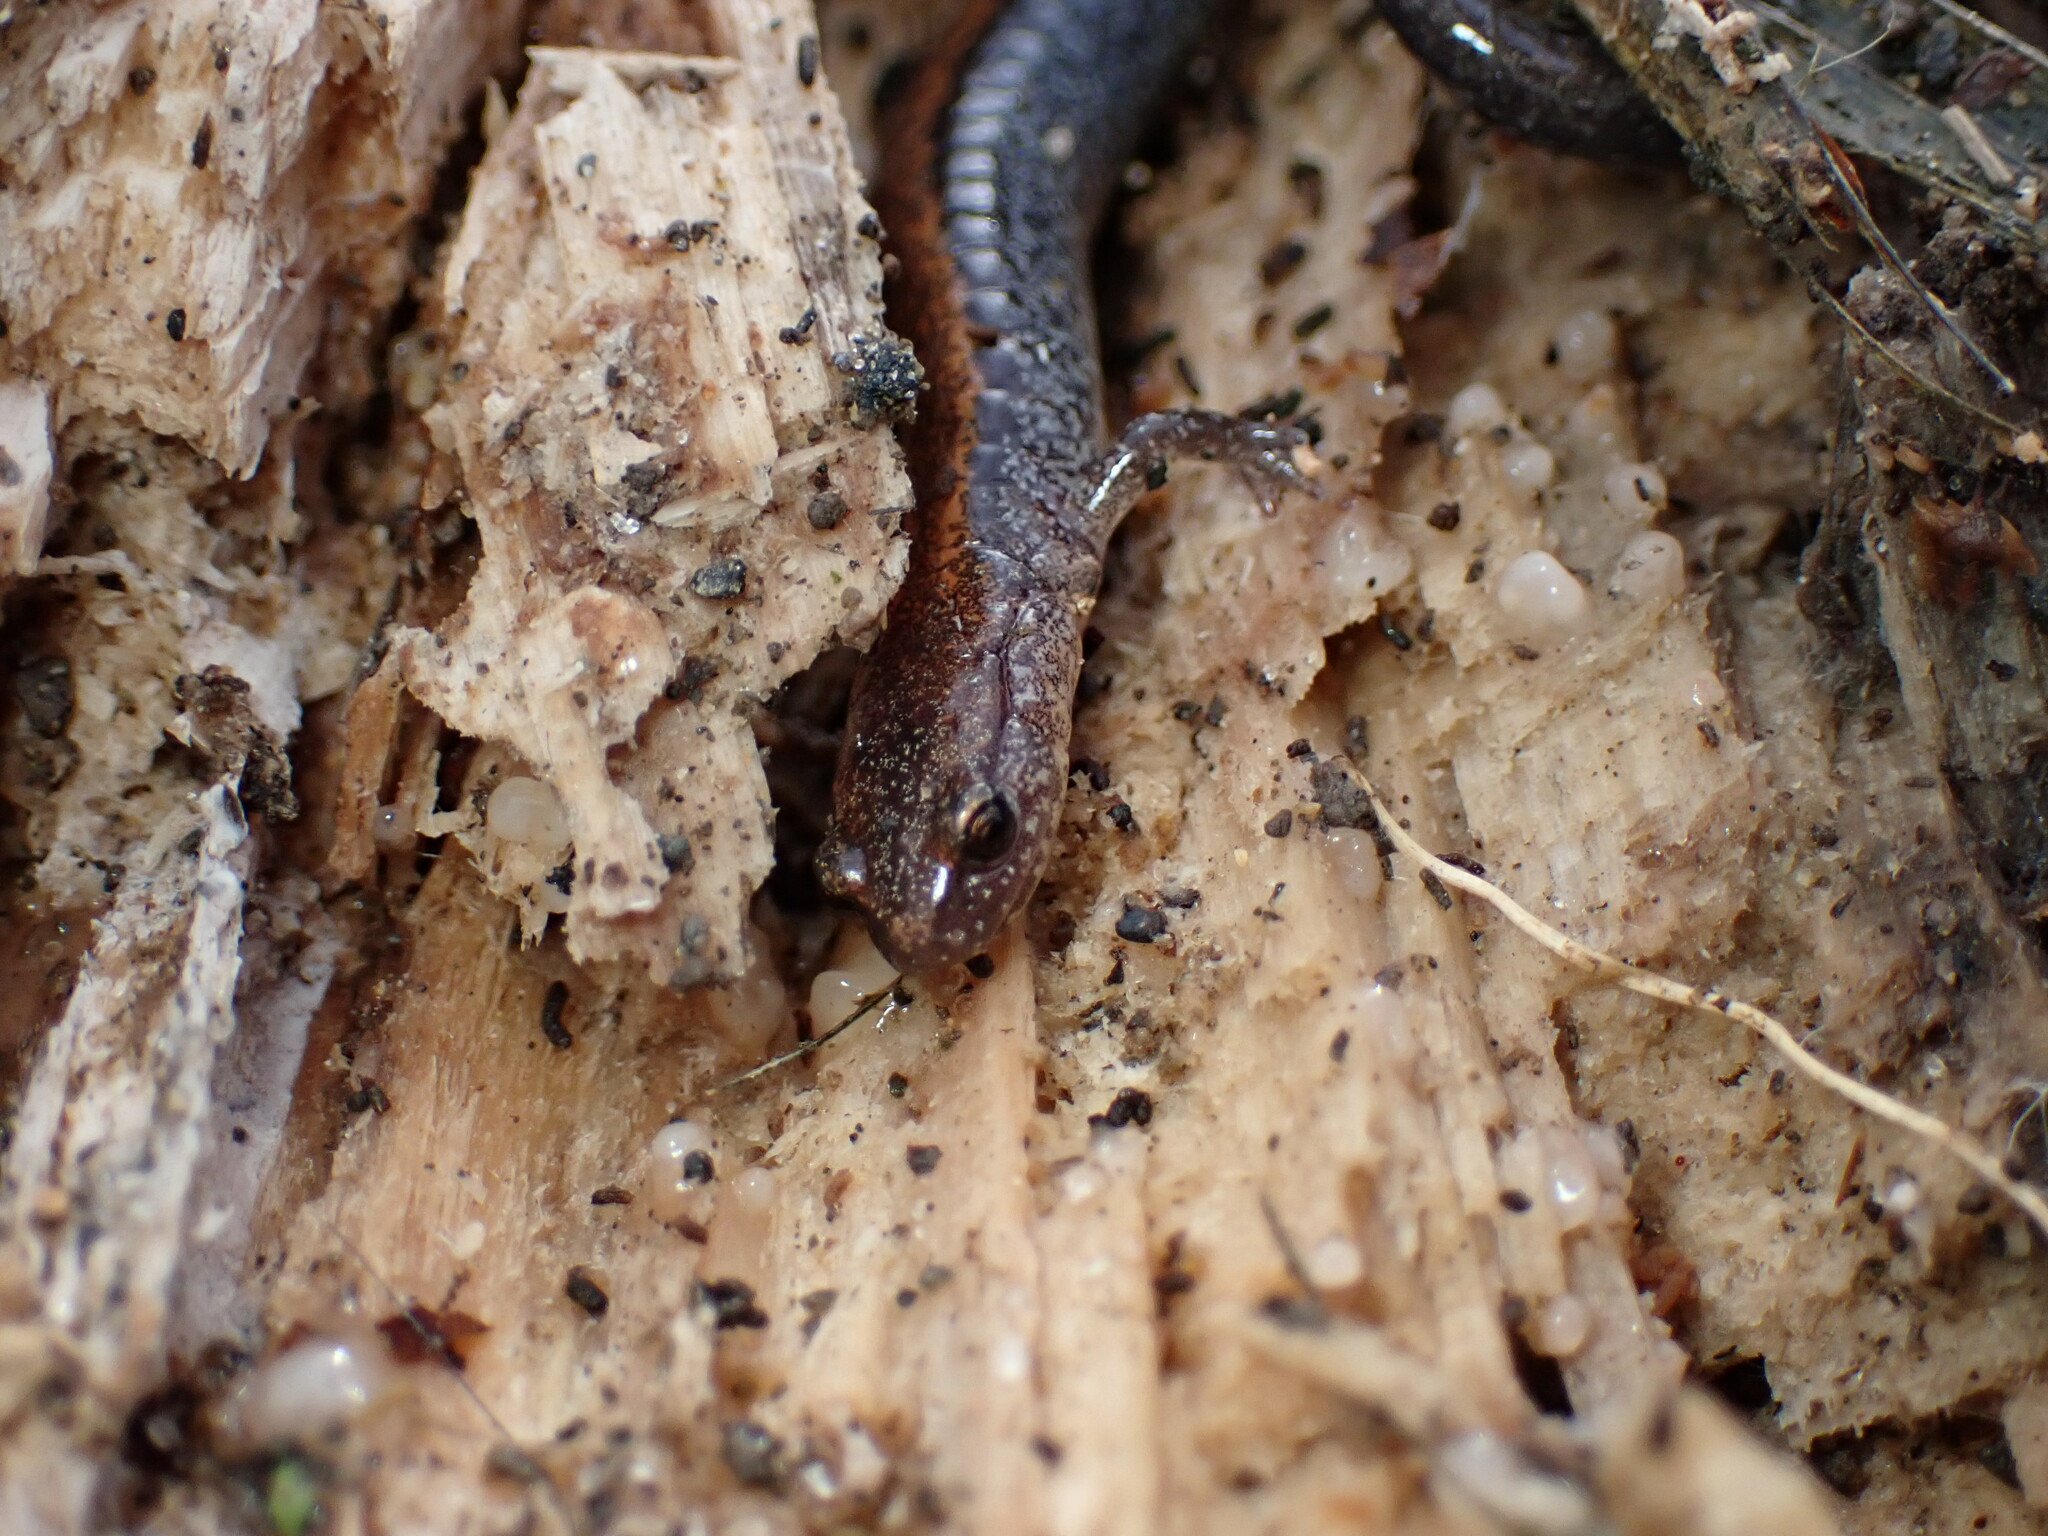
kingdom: Animalia
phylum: Chordata
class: Amphibia
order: Caudata
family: Plethodontidae
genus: Plethodon
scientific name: Plethodon cinereus
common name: Redback salamander
